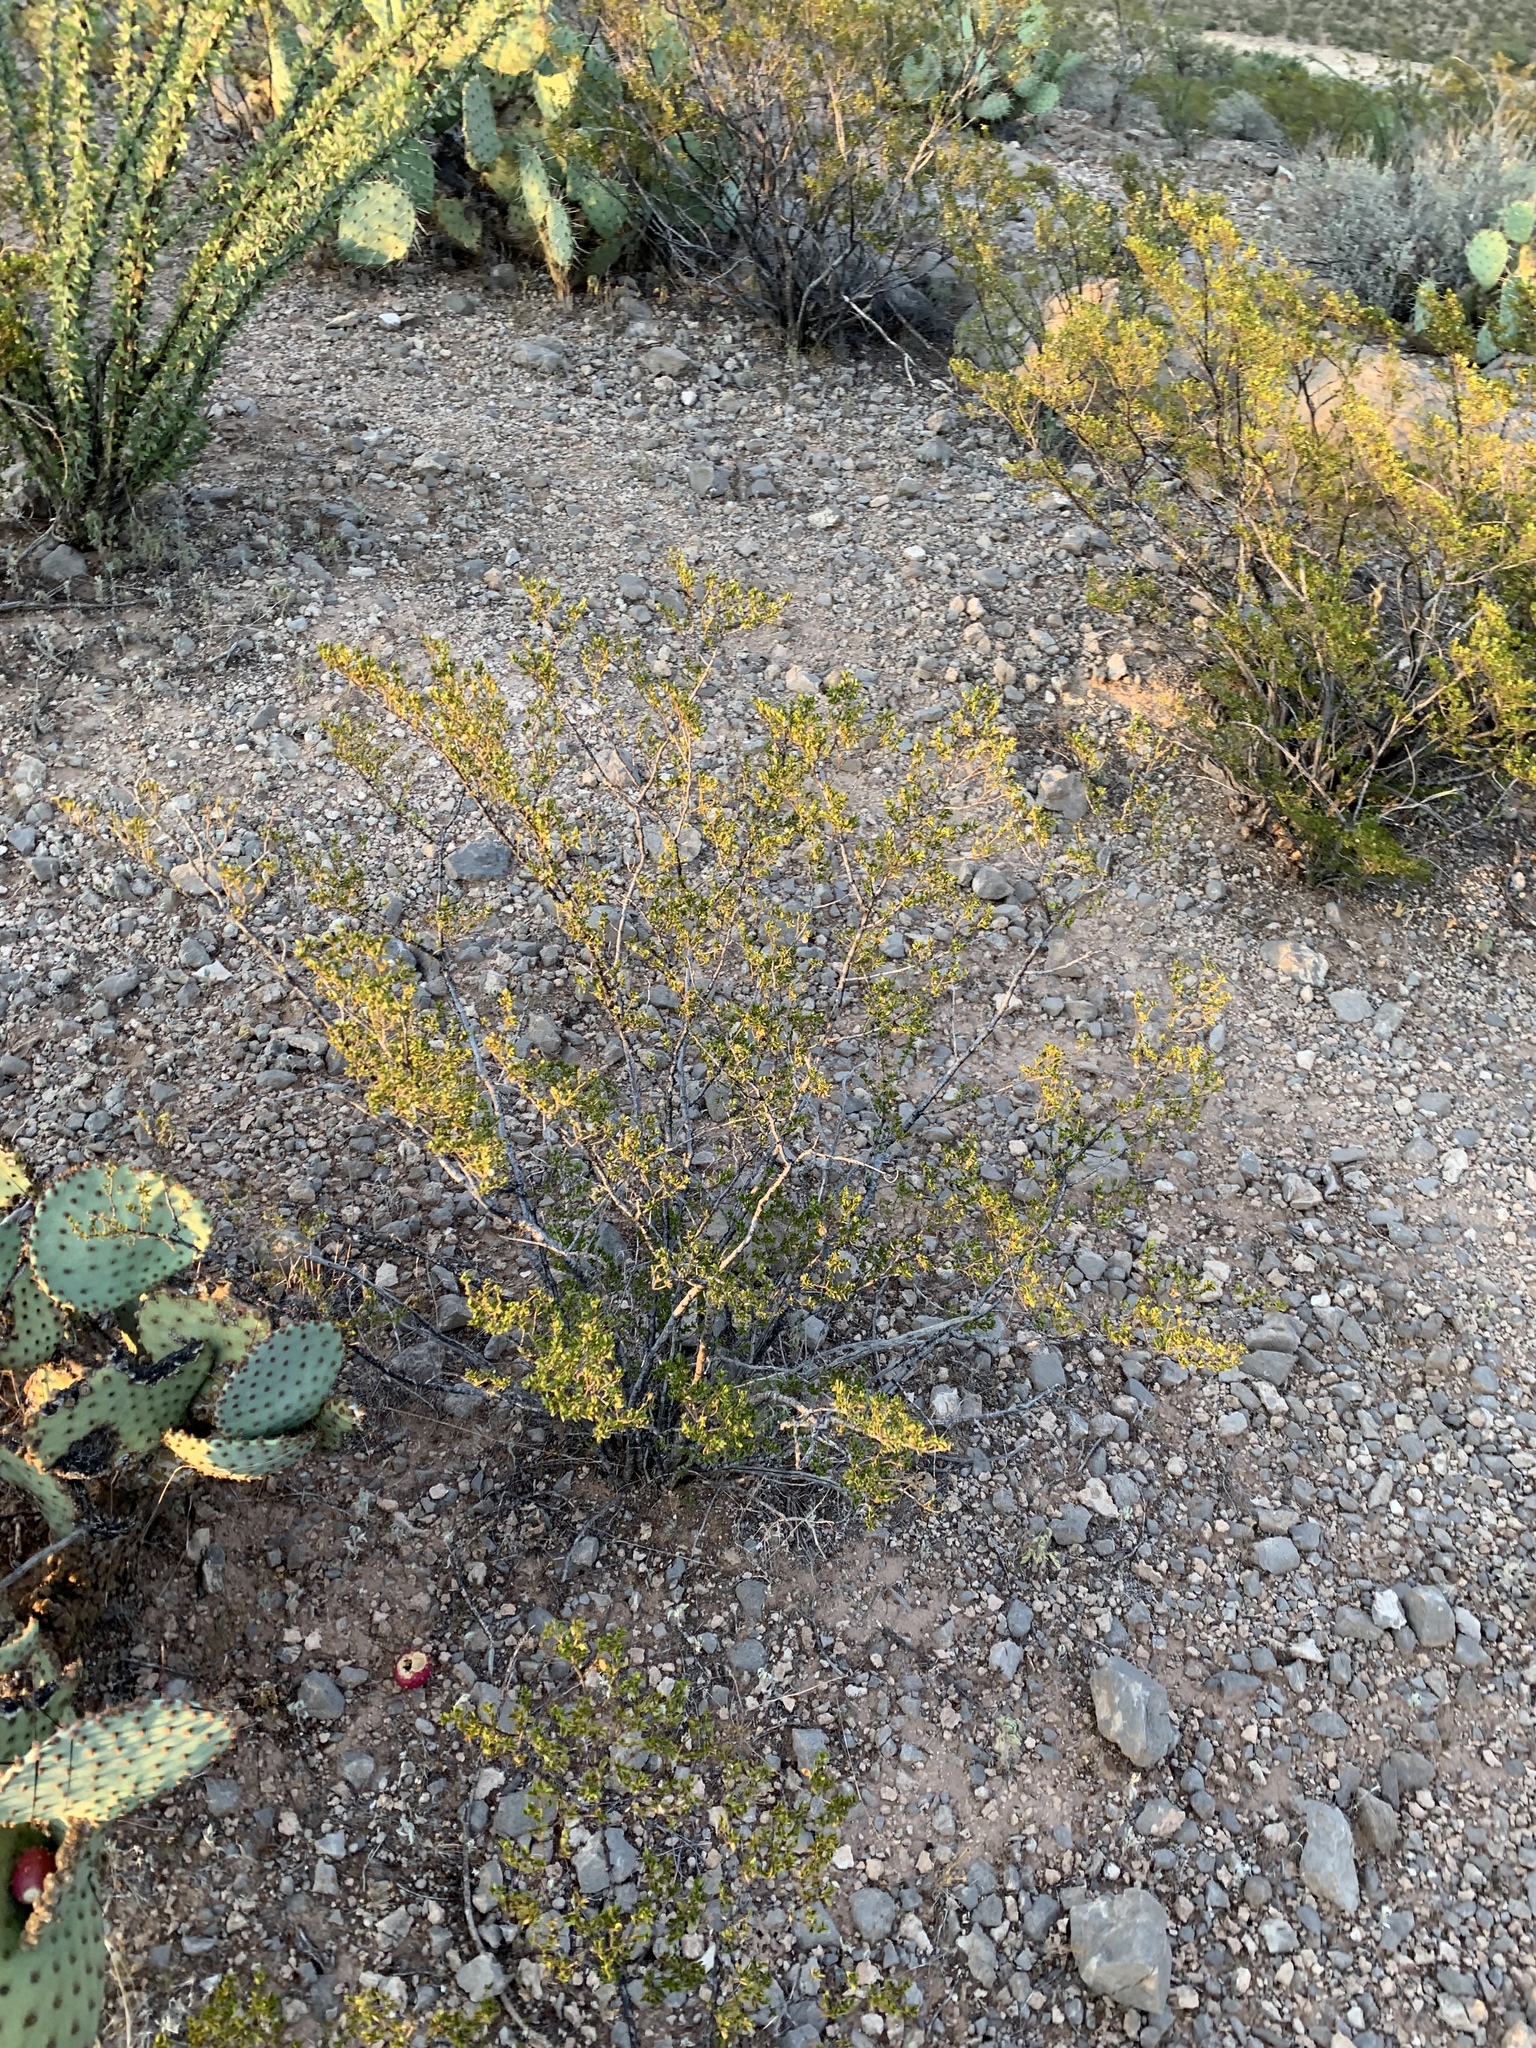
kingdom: Plantae
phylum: Tracheophyta
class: Magnoliopsida
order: Zygophyllales
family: Zygophyllaceae
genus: Larrea
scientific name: Larrea tridentata
